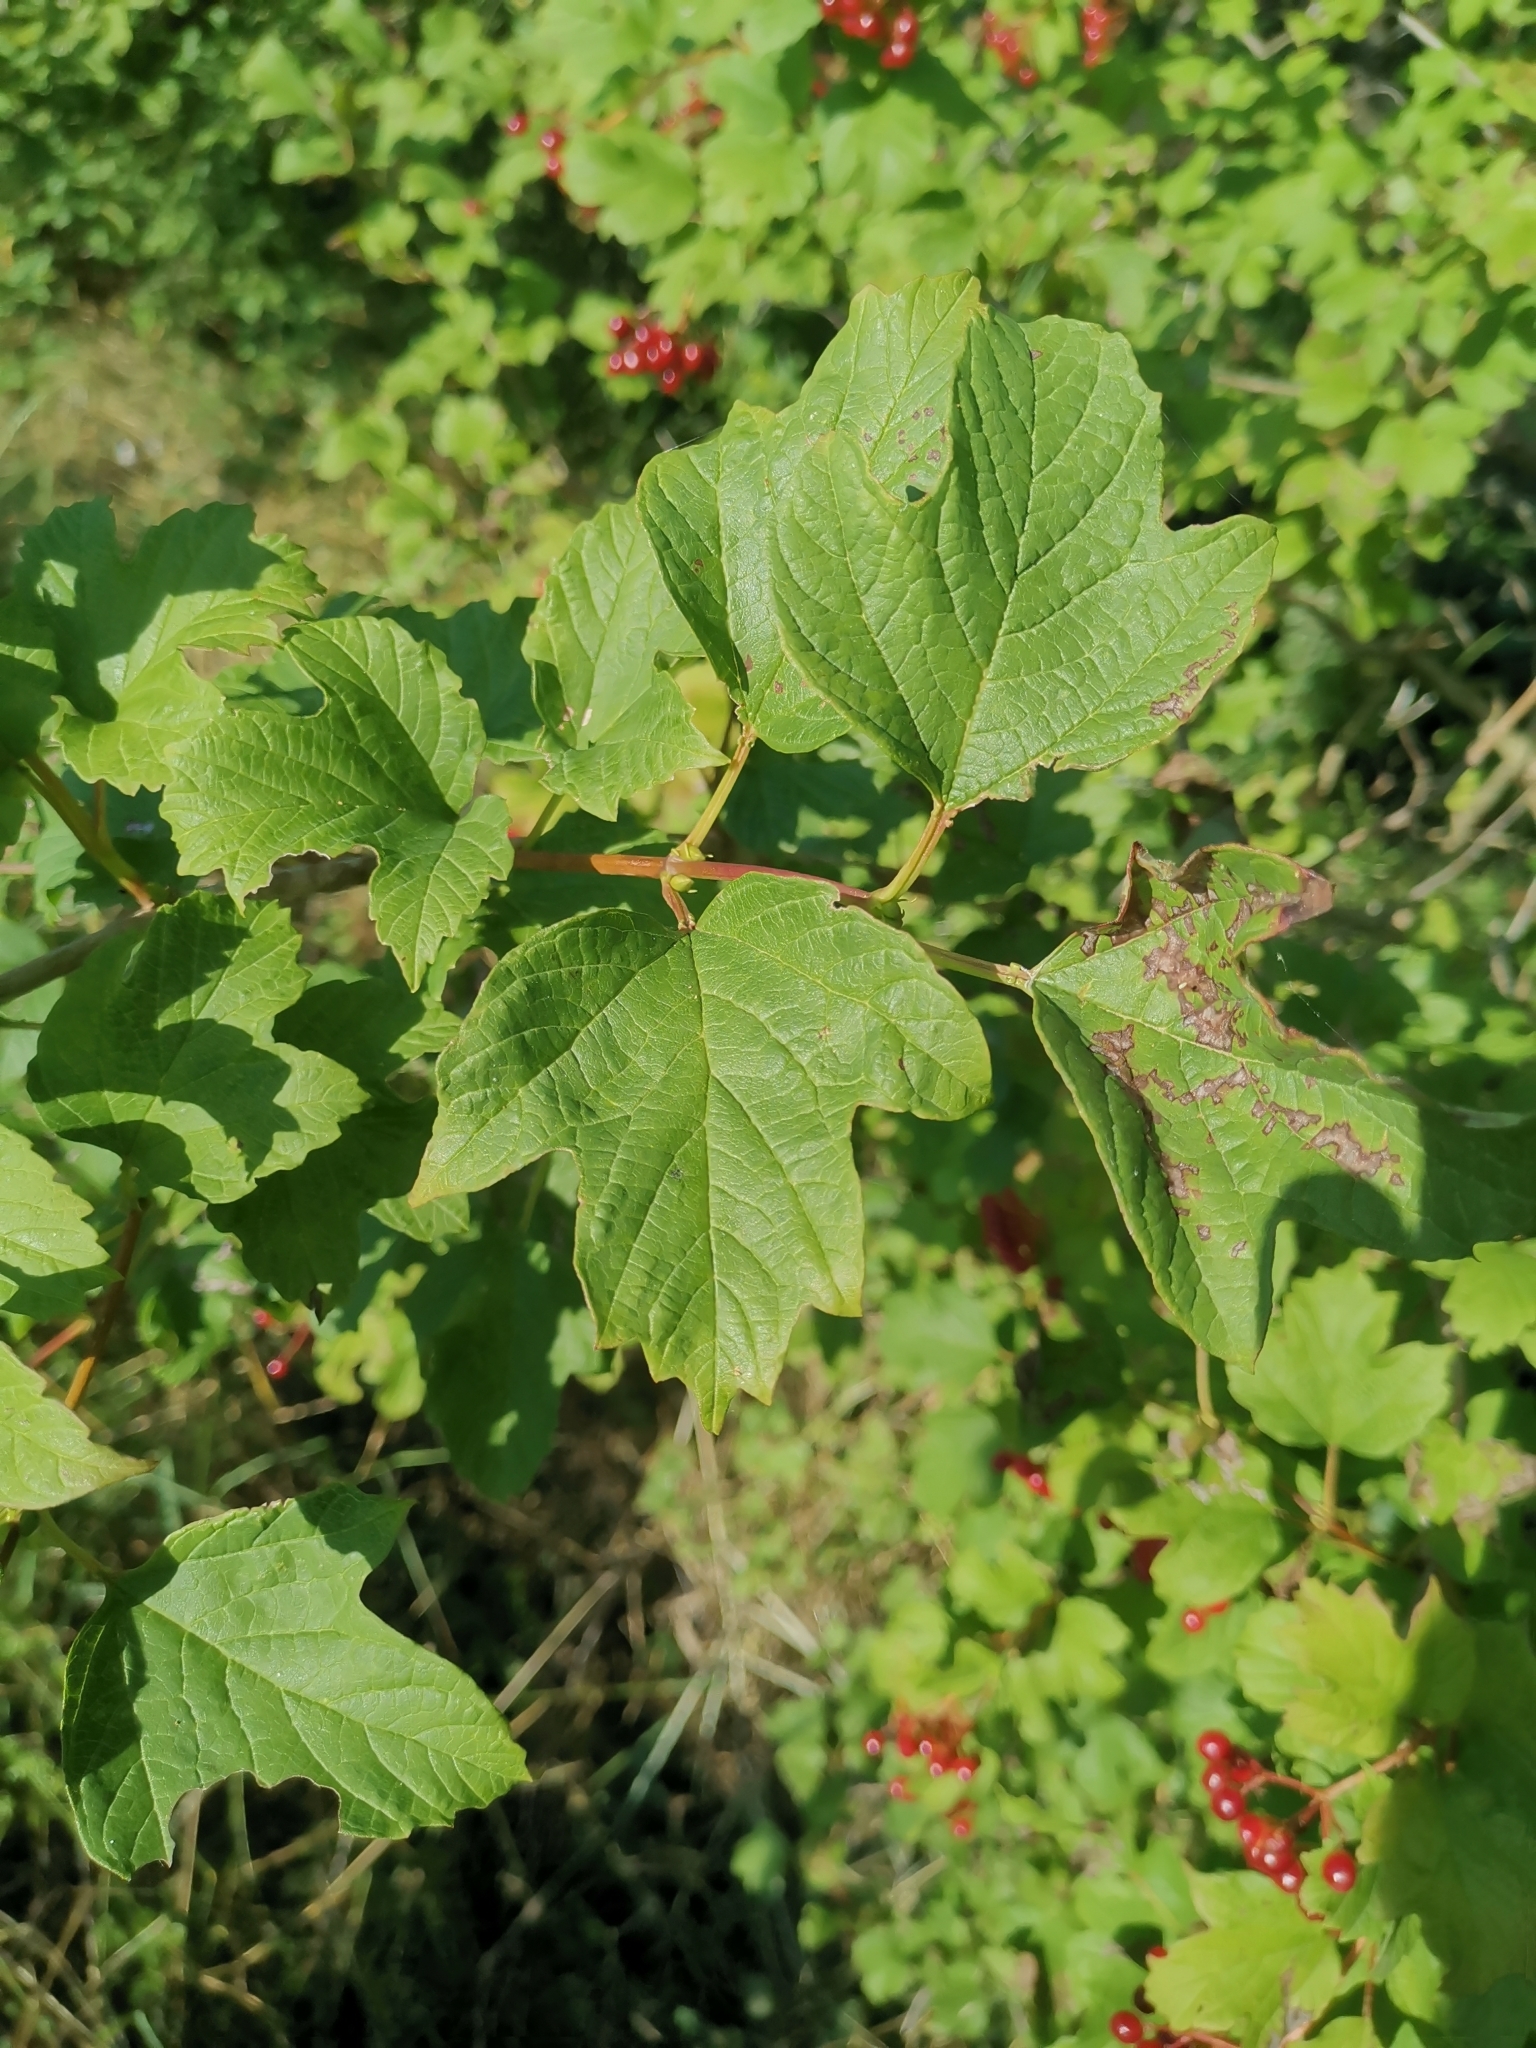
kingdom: Plantae
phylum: Tracheophyta
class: Magnoliopsida
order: Dipsacales
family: Viburnaceae
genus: Viburnum
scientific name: Viburnum opulus
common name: Guelder-rose
